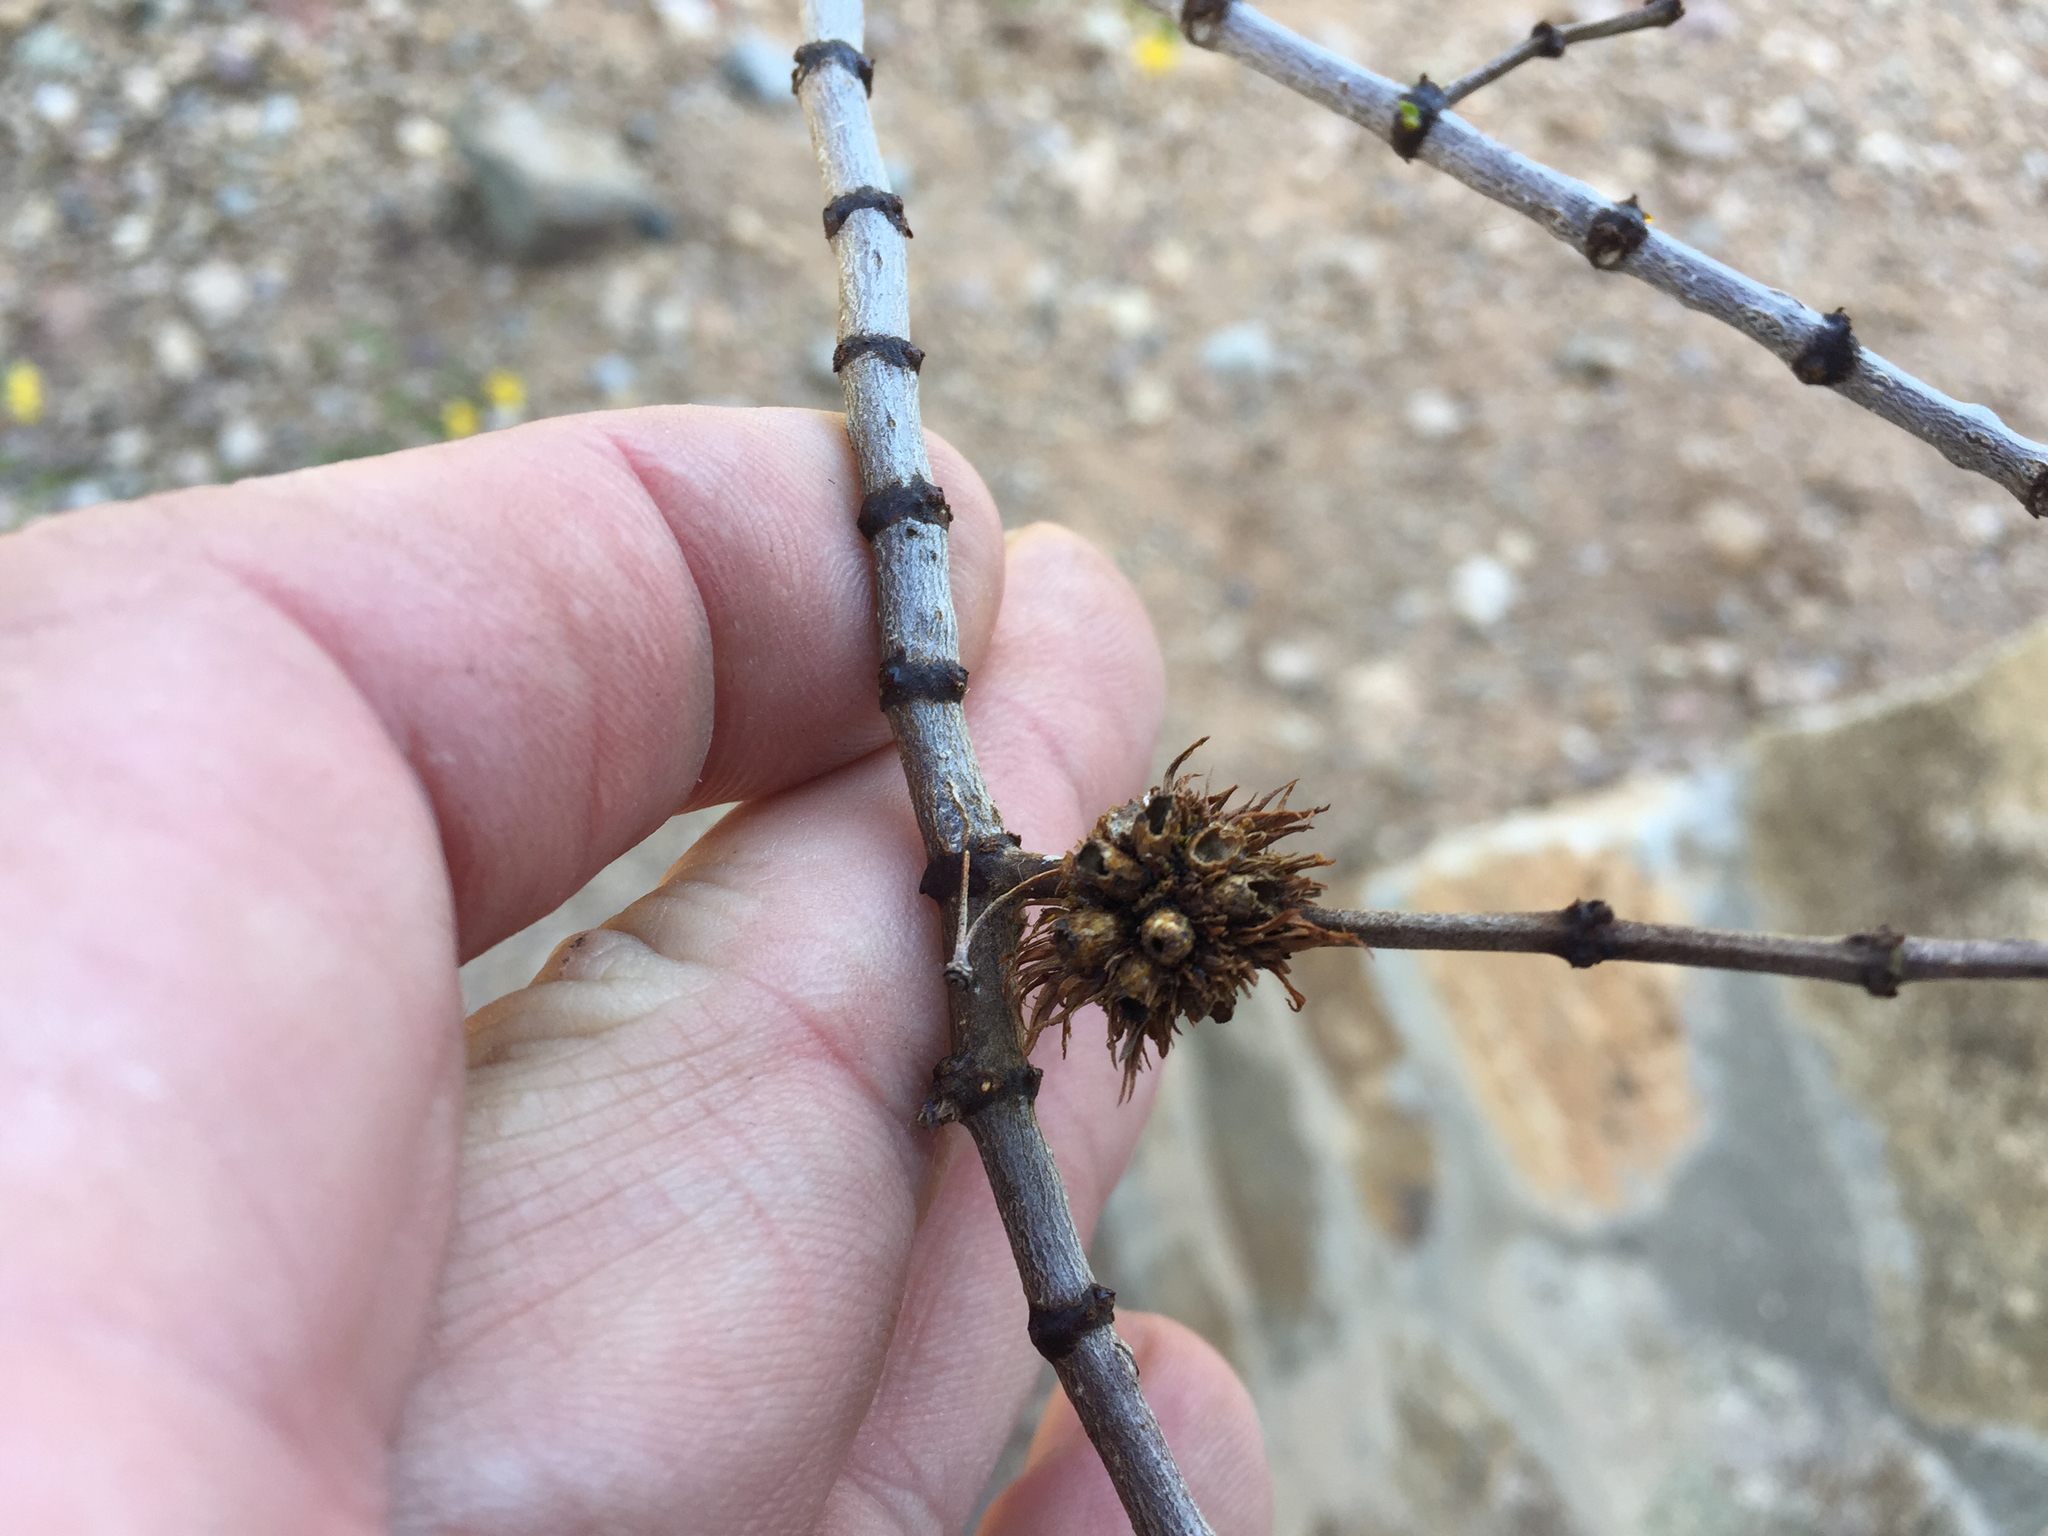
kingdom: Animalia
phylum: Arthropoda
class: Insecta
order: Diptera
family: Cecidomyiidae
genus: Asphondylia
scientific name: Asphondylia auripila
